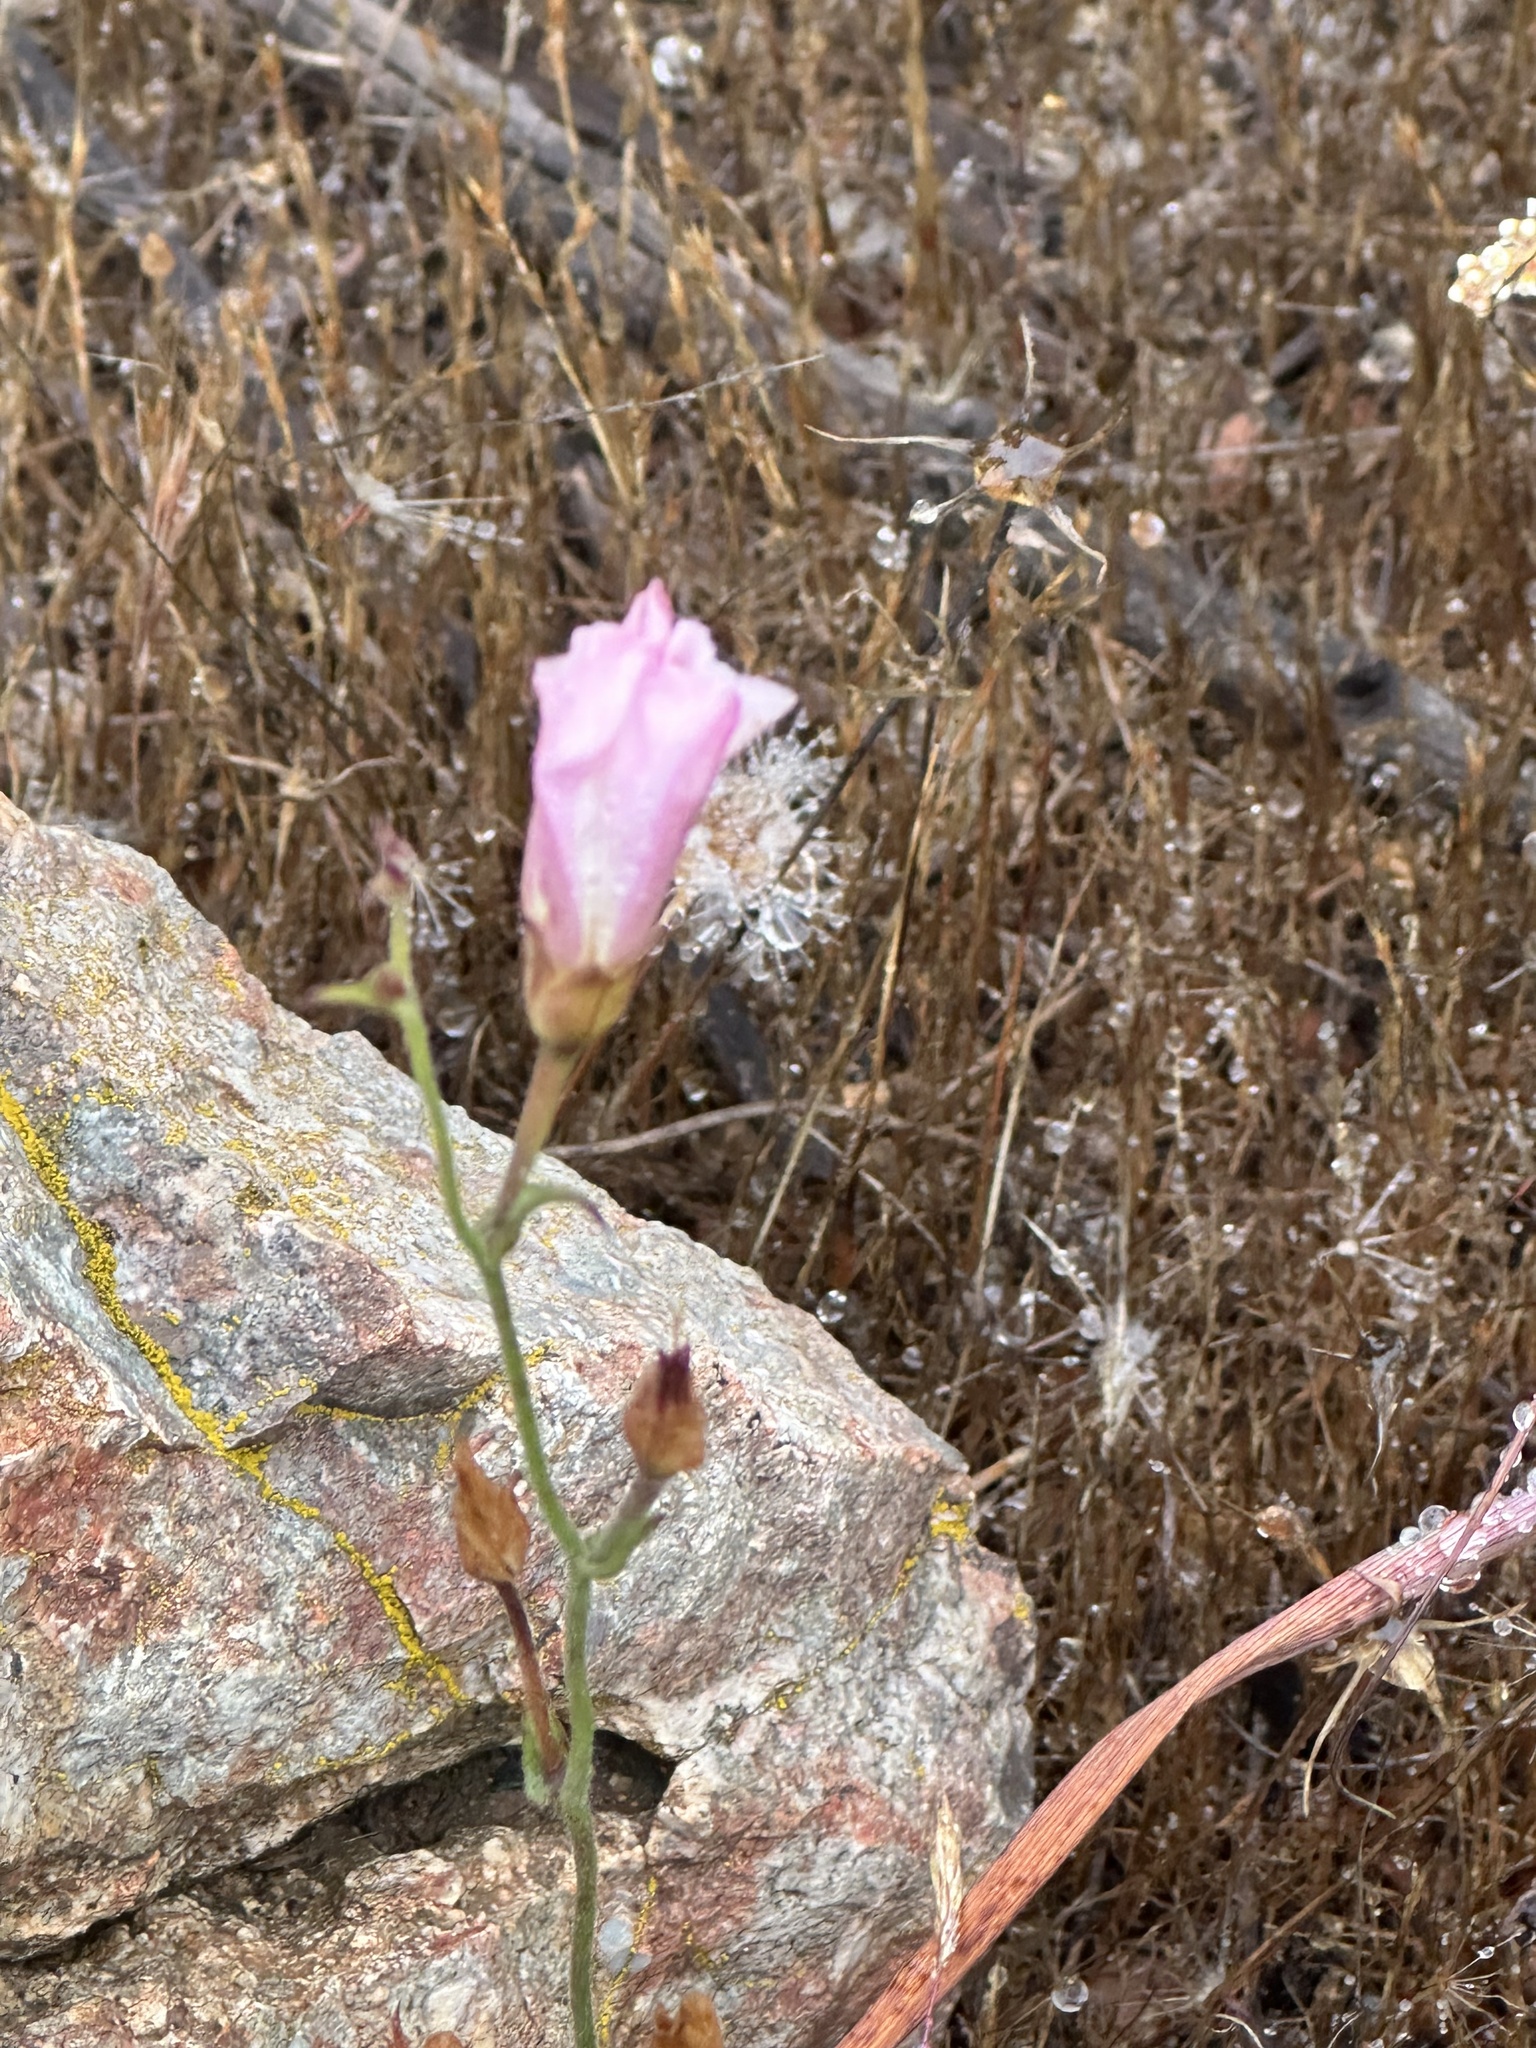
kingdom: Plantae
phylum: Tracheophyta
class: Magnoliopsida
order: Solanales
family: Convolvulaceae
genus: Calystegia
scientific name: Calystegia macrostegia
